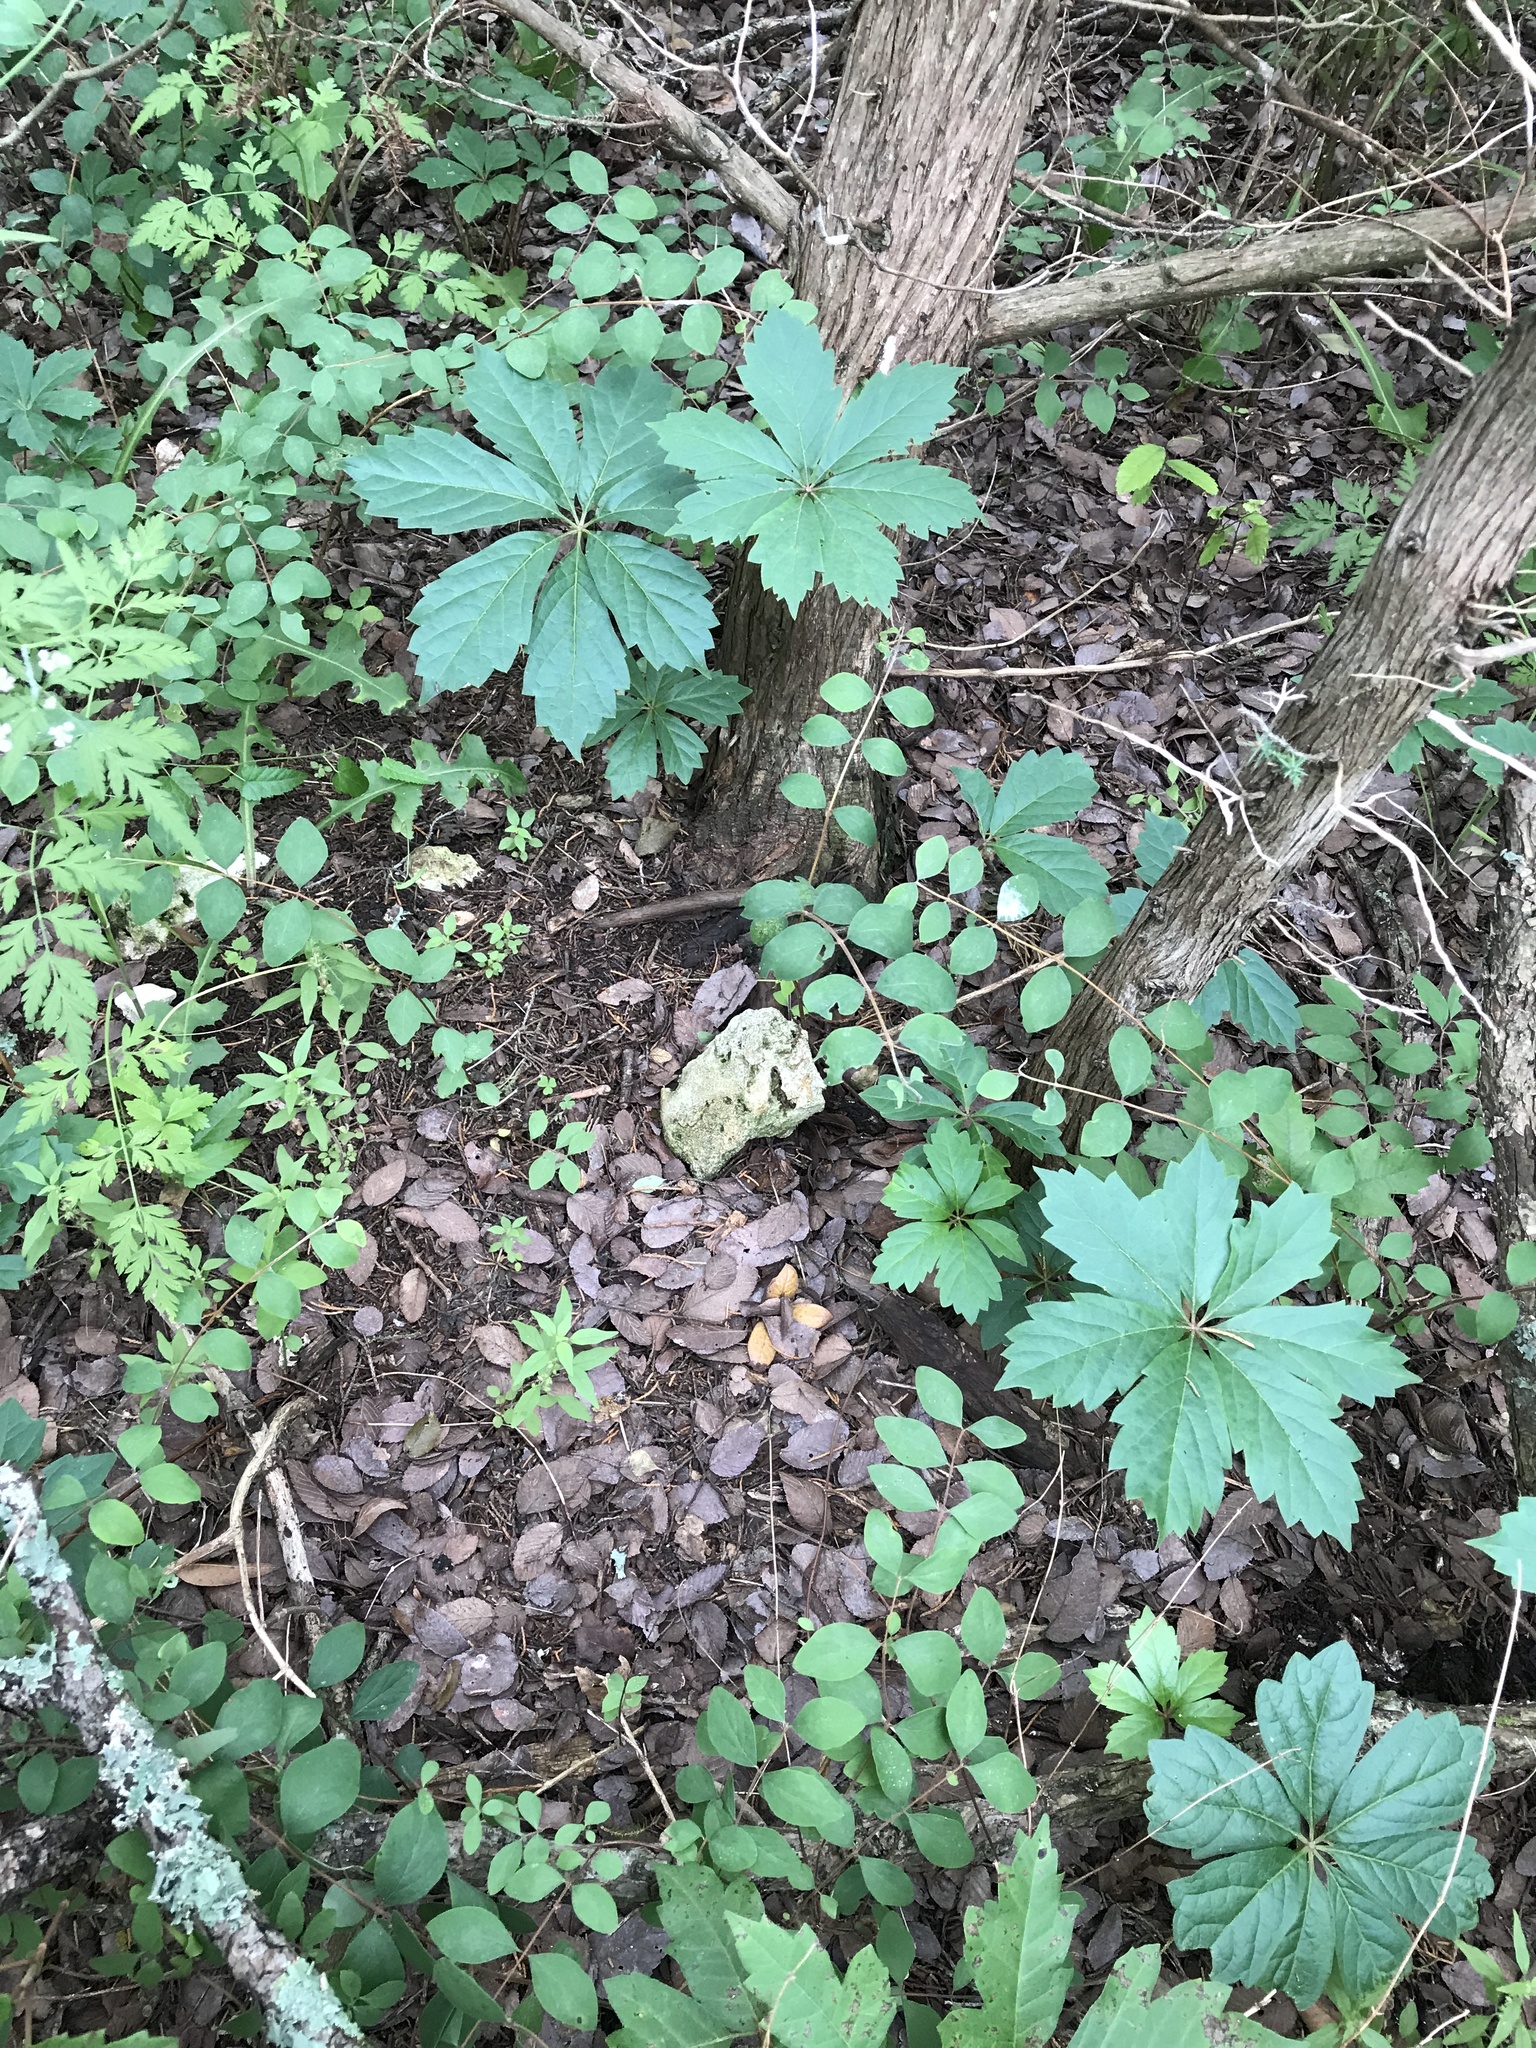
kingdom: Plantae
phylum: Tracheophyta
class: Magnoliopsida
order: Vitales
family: Vitaceae
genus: Parthenocissus
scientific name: Parthenocissus heptaphylla
